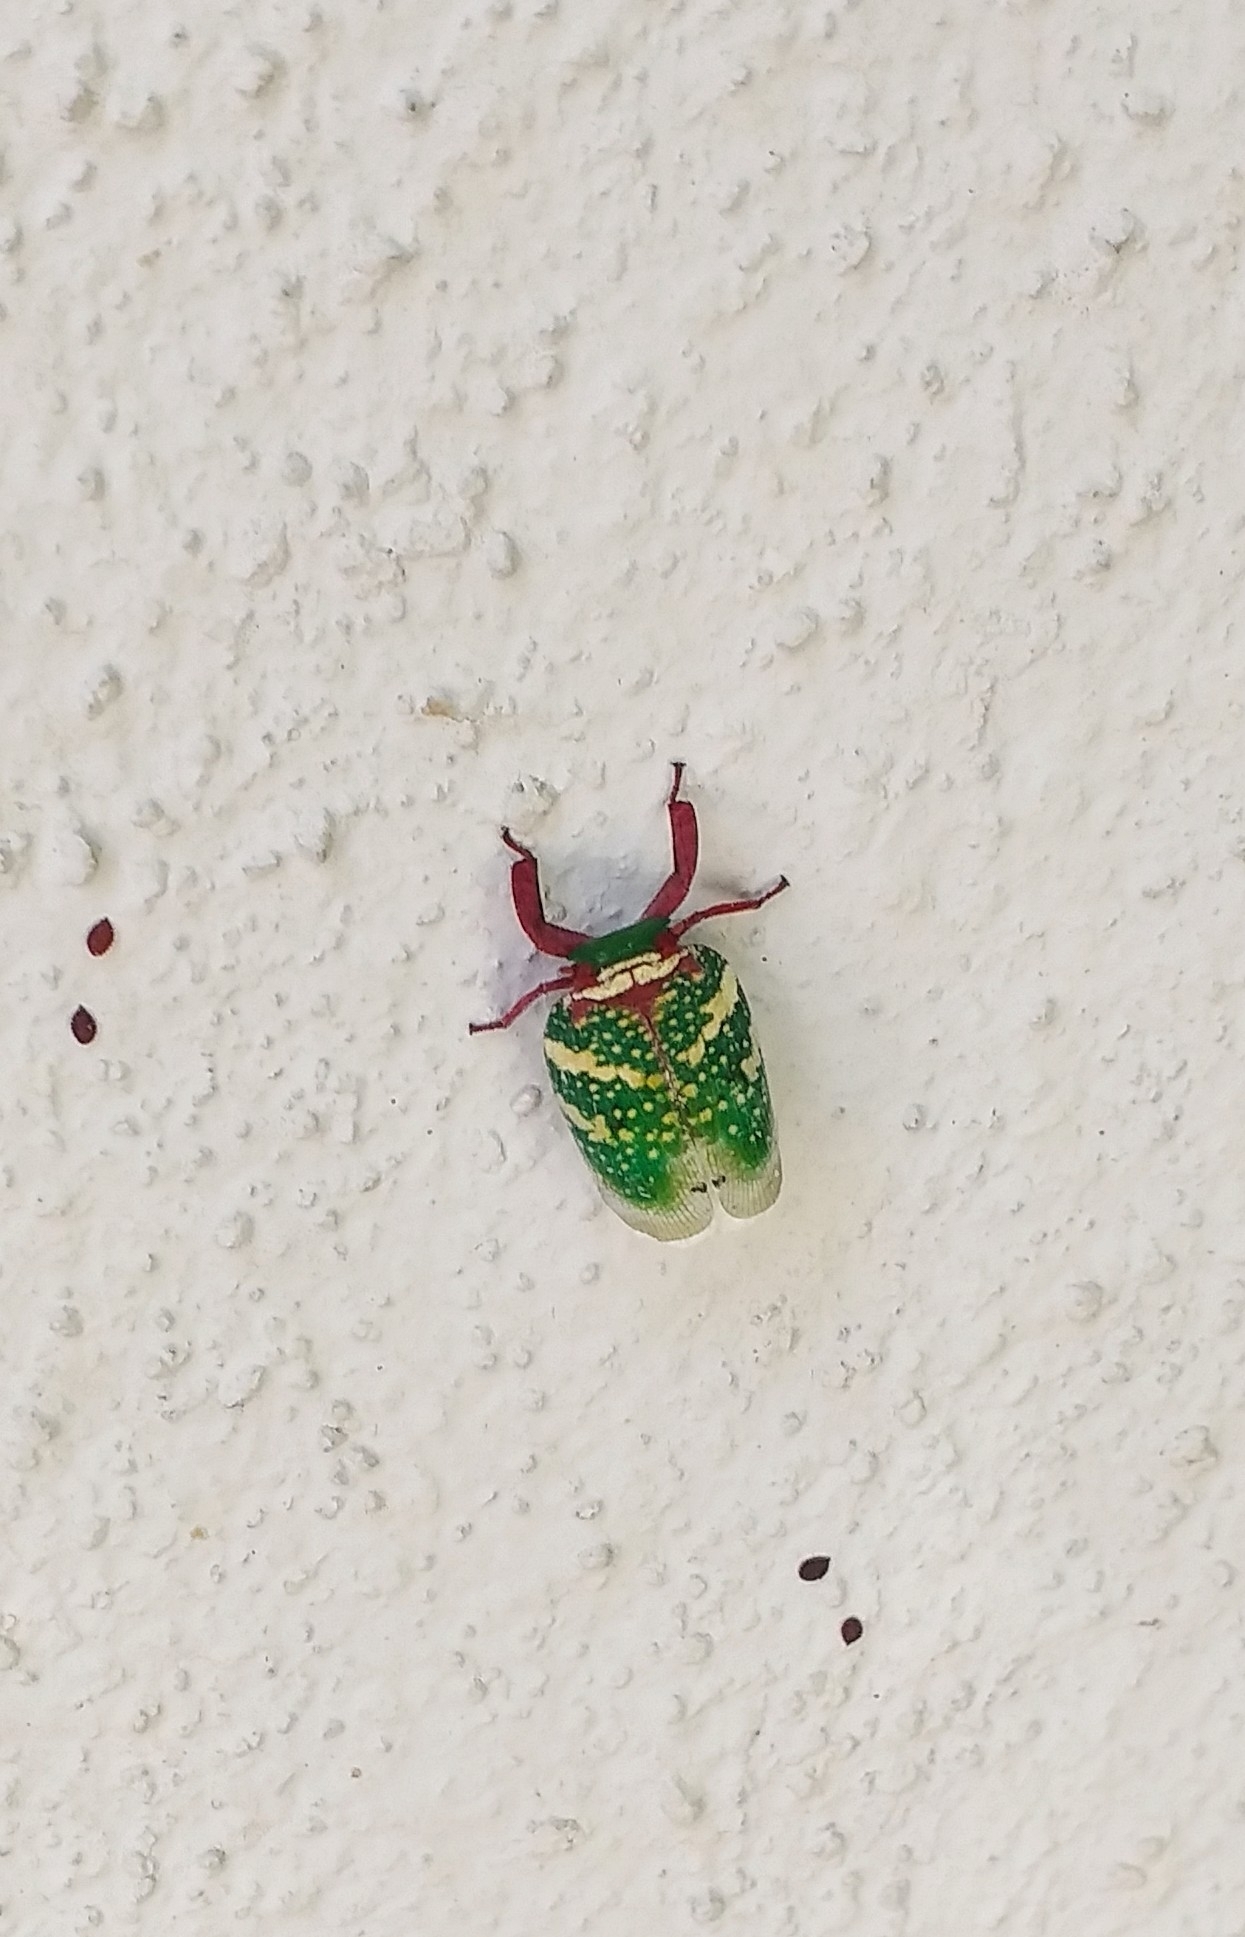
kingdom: Animalia
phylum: Arthropoda
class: Insecta
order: Hemiptera
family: Eurybrachidae
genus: Eurybrachys
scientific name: Eurybrachys tomentosa
